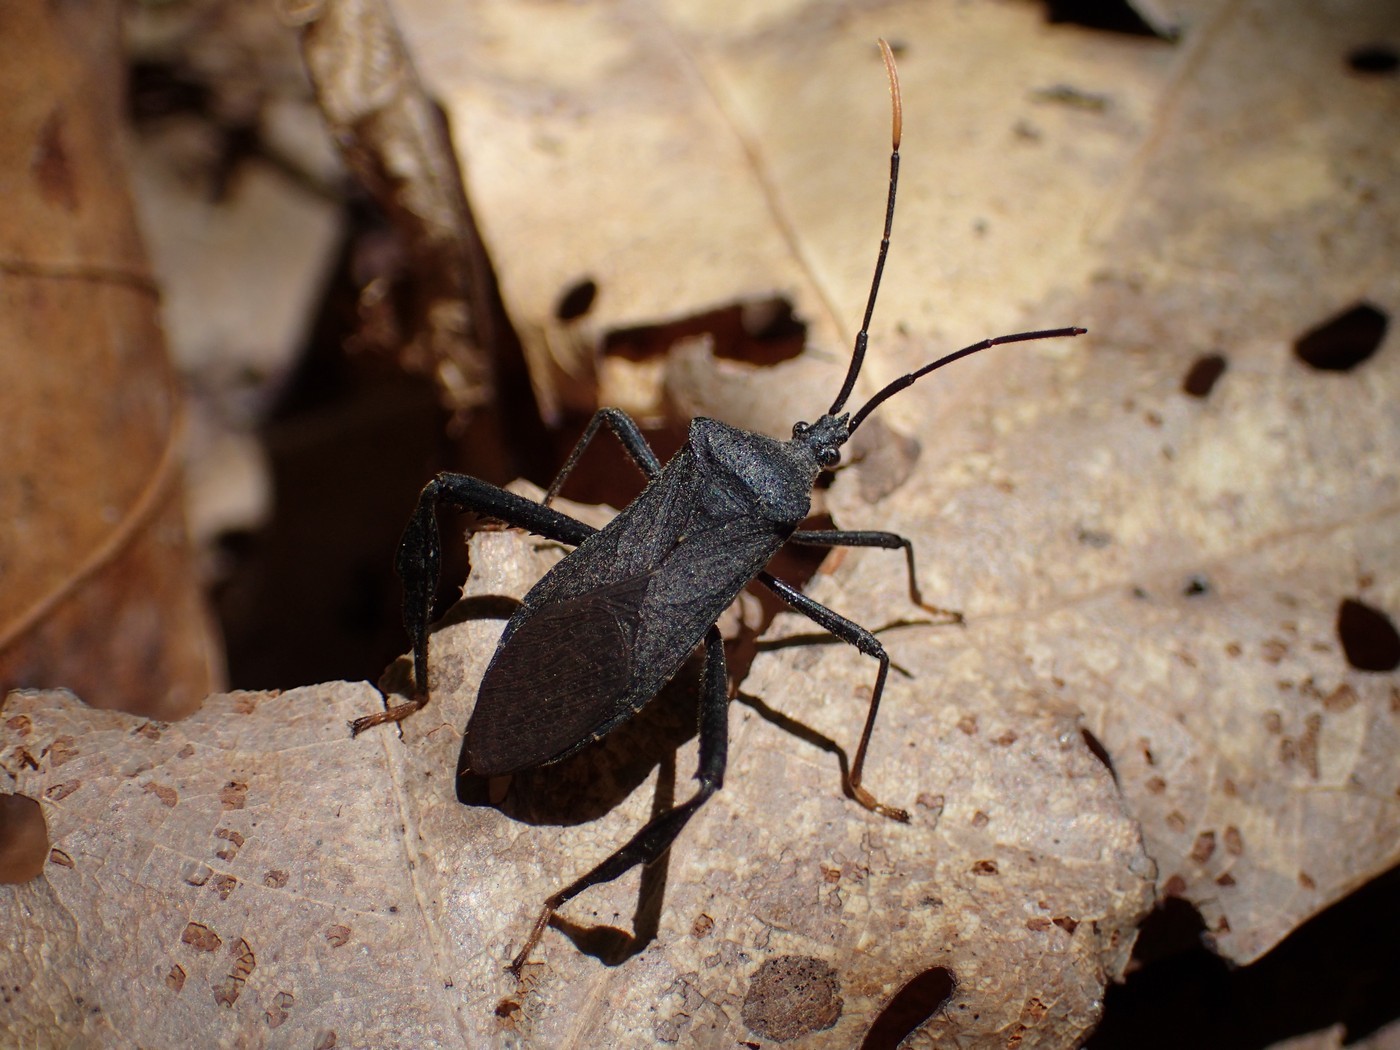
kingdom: Animalia
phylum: Arthropoda
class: Insecta
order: Hemiptera
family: Coreidae
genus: Acanthocephala
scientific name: Acanthocephala terminalis
